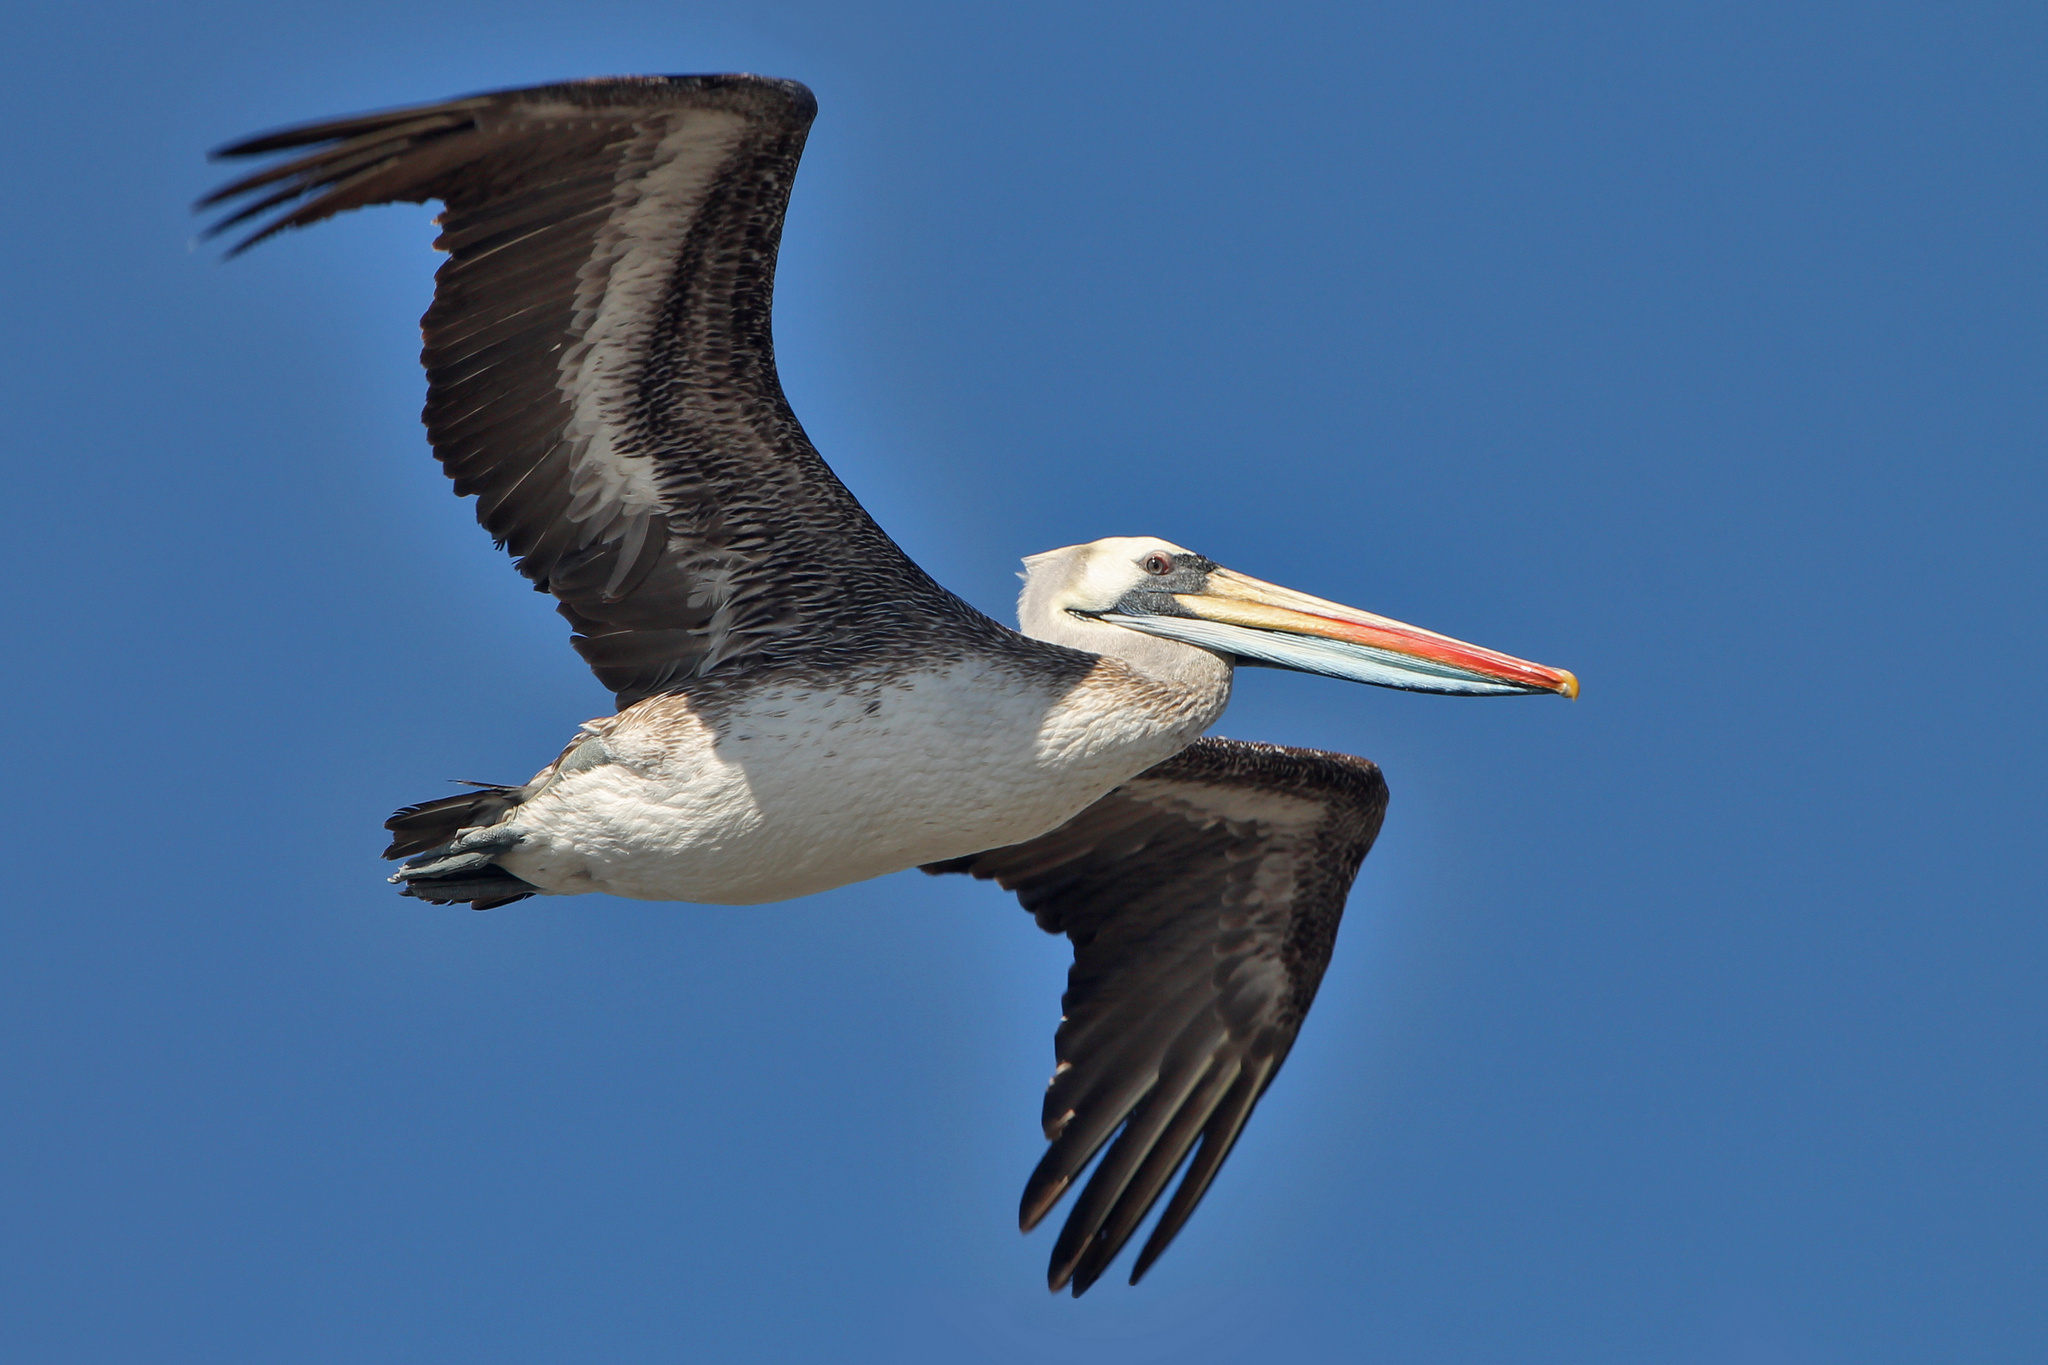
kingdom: Animalia
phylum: Chordata
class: Aves
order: Pelecaniformes
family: Pelecanidae
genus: Pelecanus
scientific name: Pelecanus thagus
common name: Peruvian pelican
